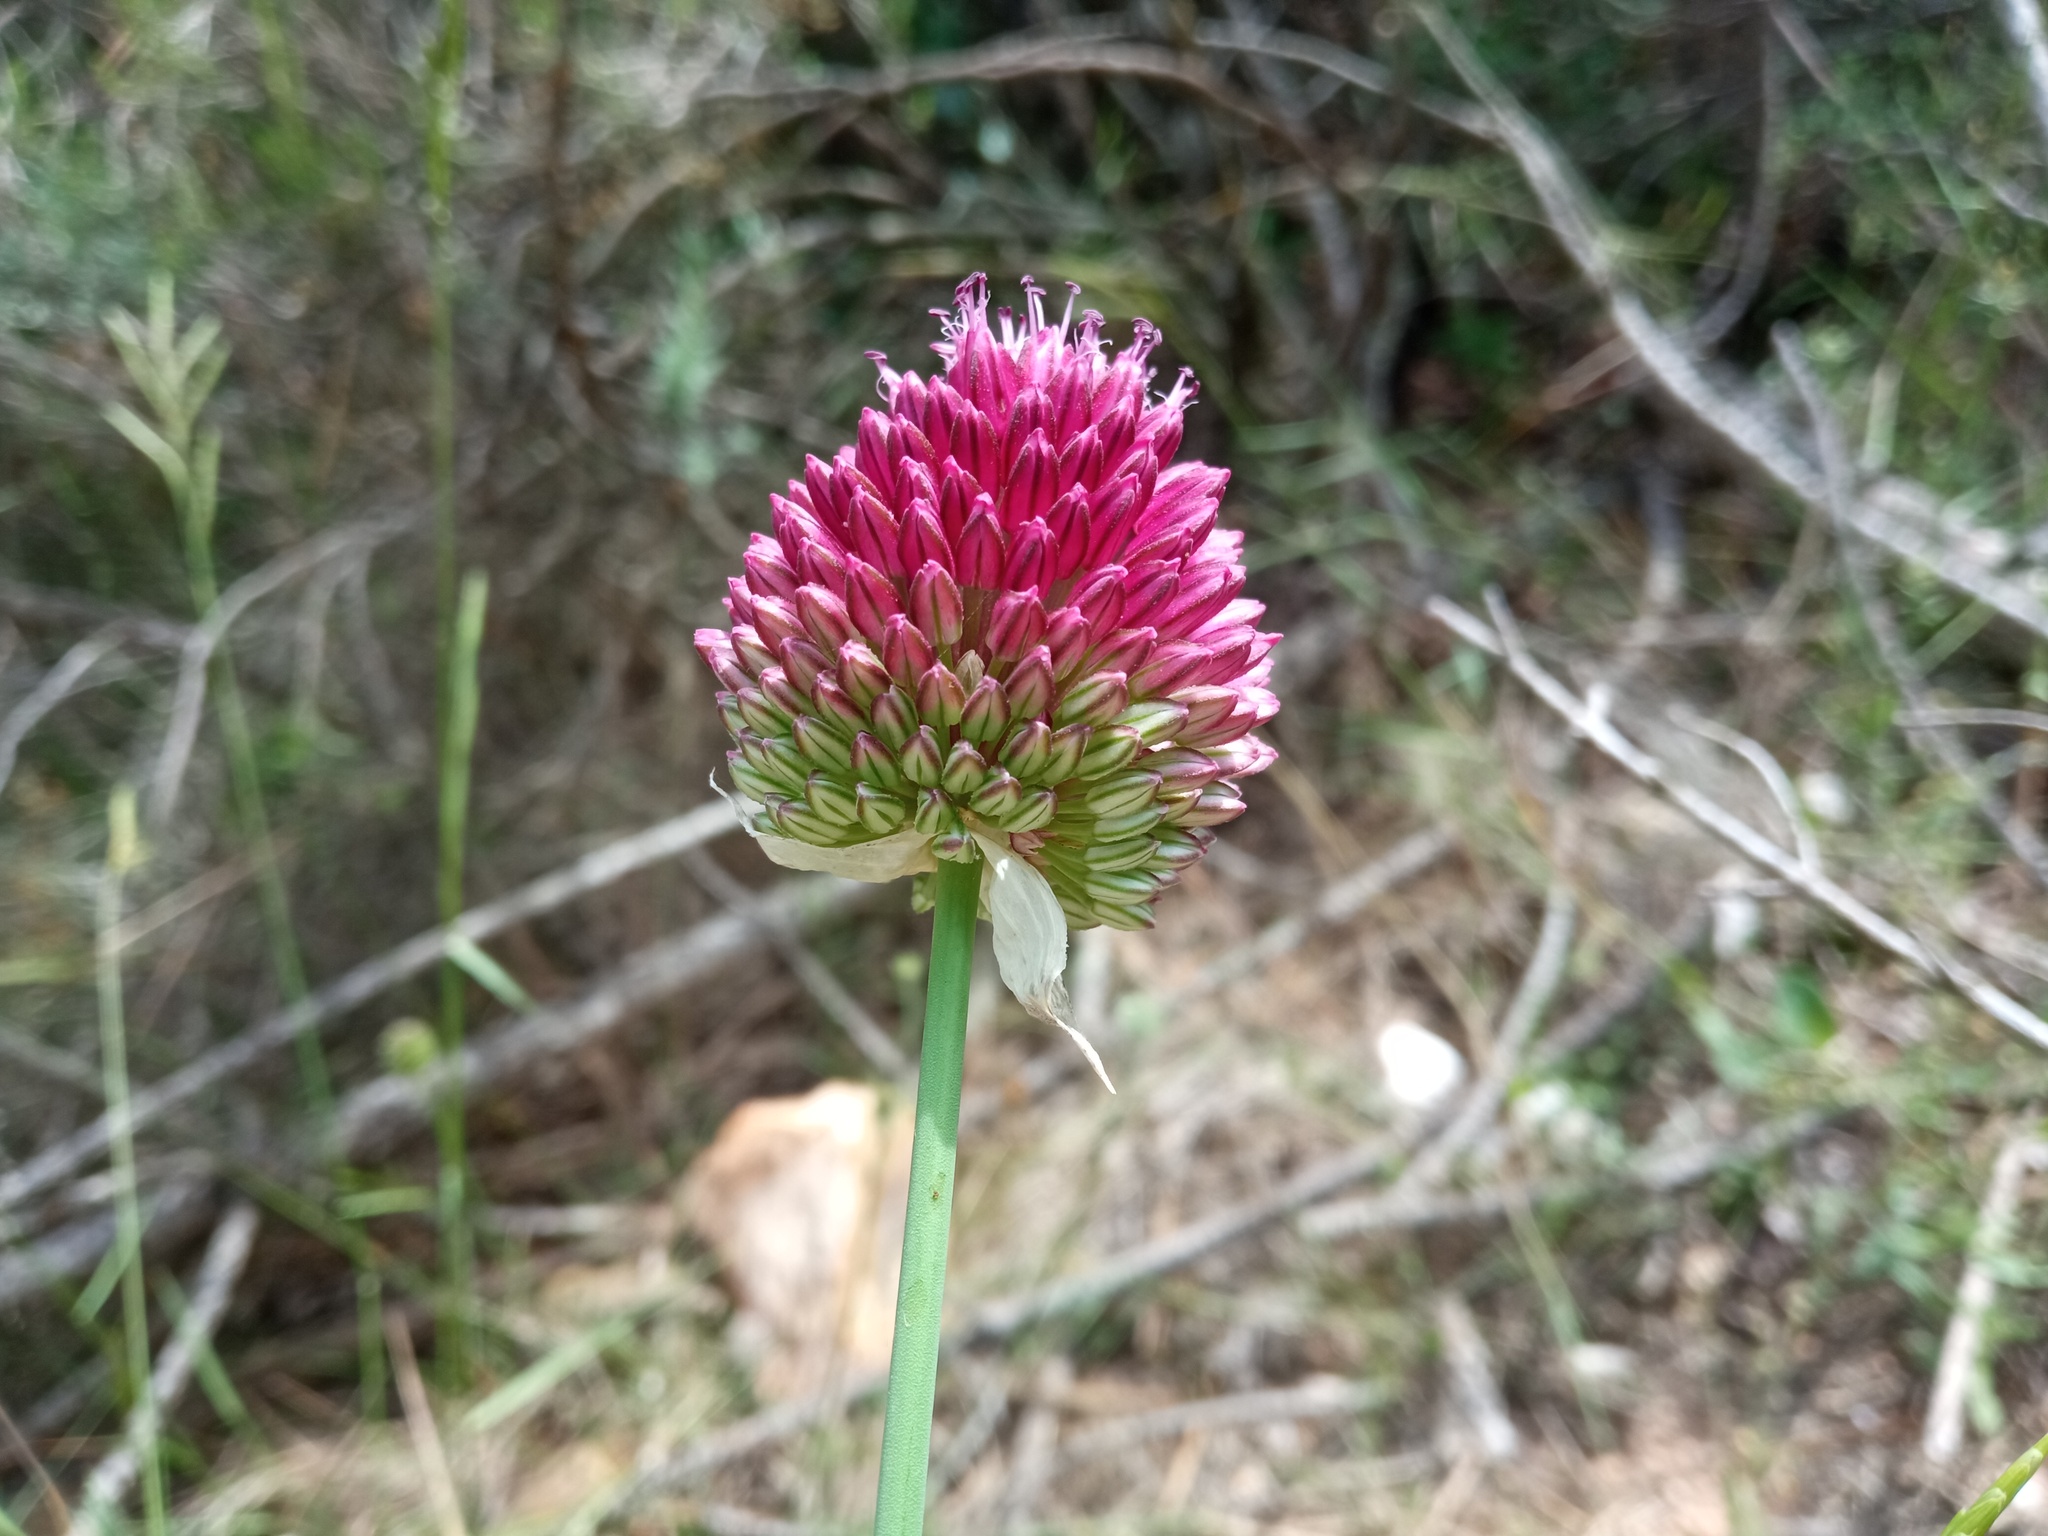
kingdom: Plantae
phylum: Tracheophyta
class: Liliopsida
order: Asparagales
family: Amaryllidaceae
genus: Allium
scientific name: Allium sphaerocephalon
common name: Round-headed leek
